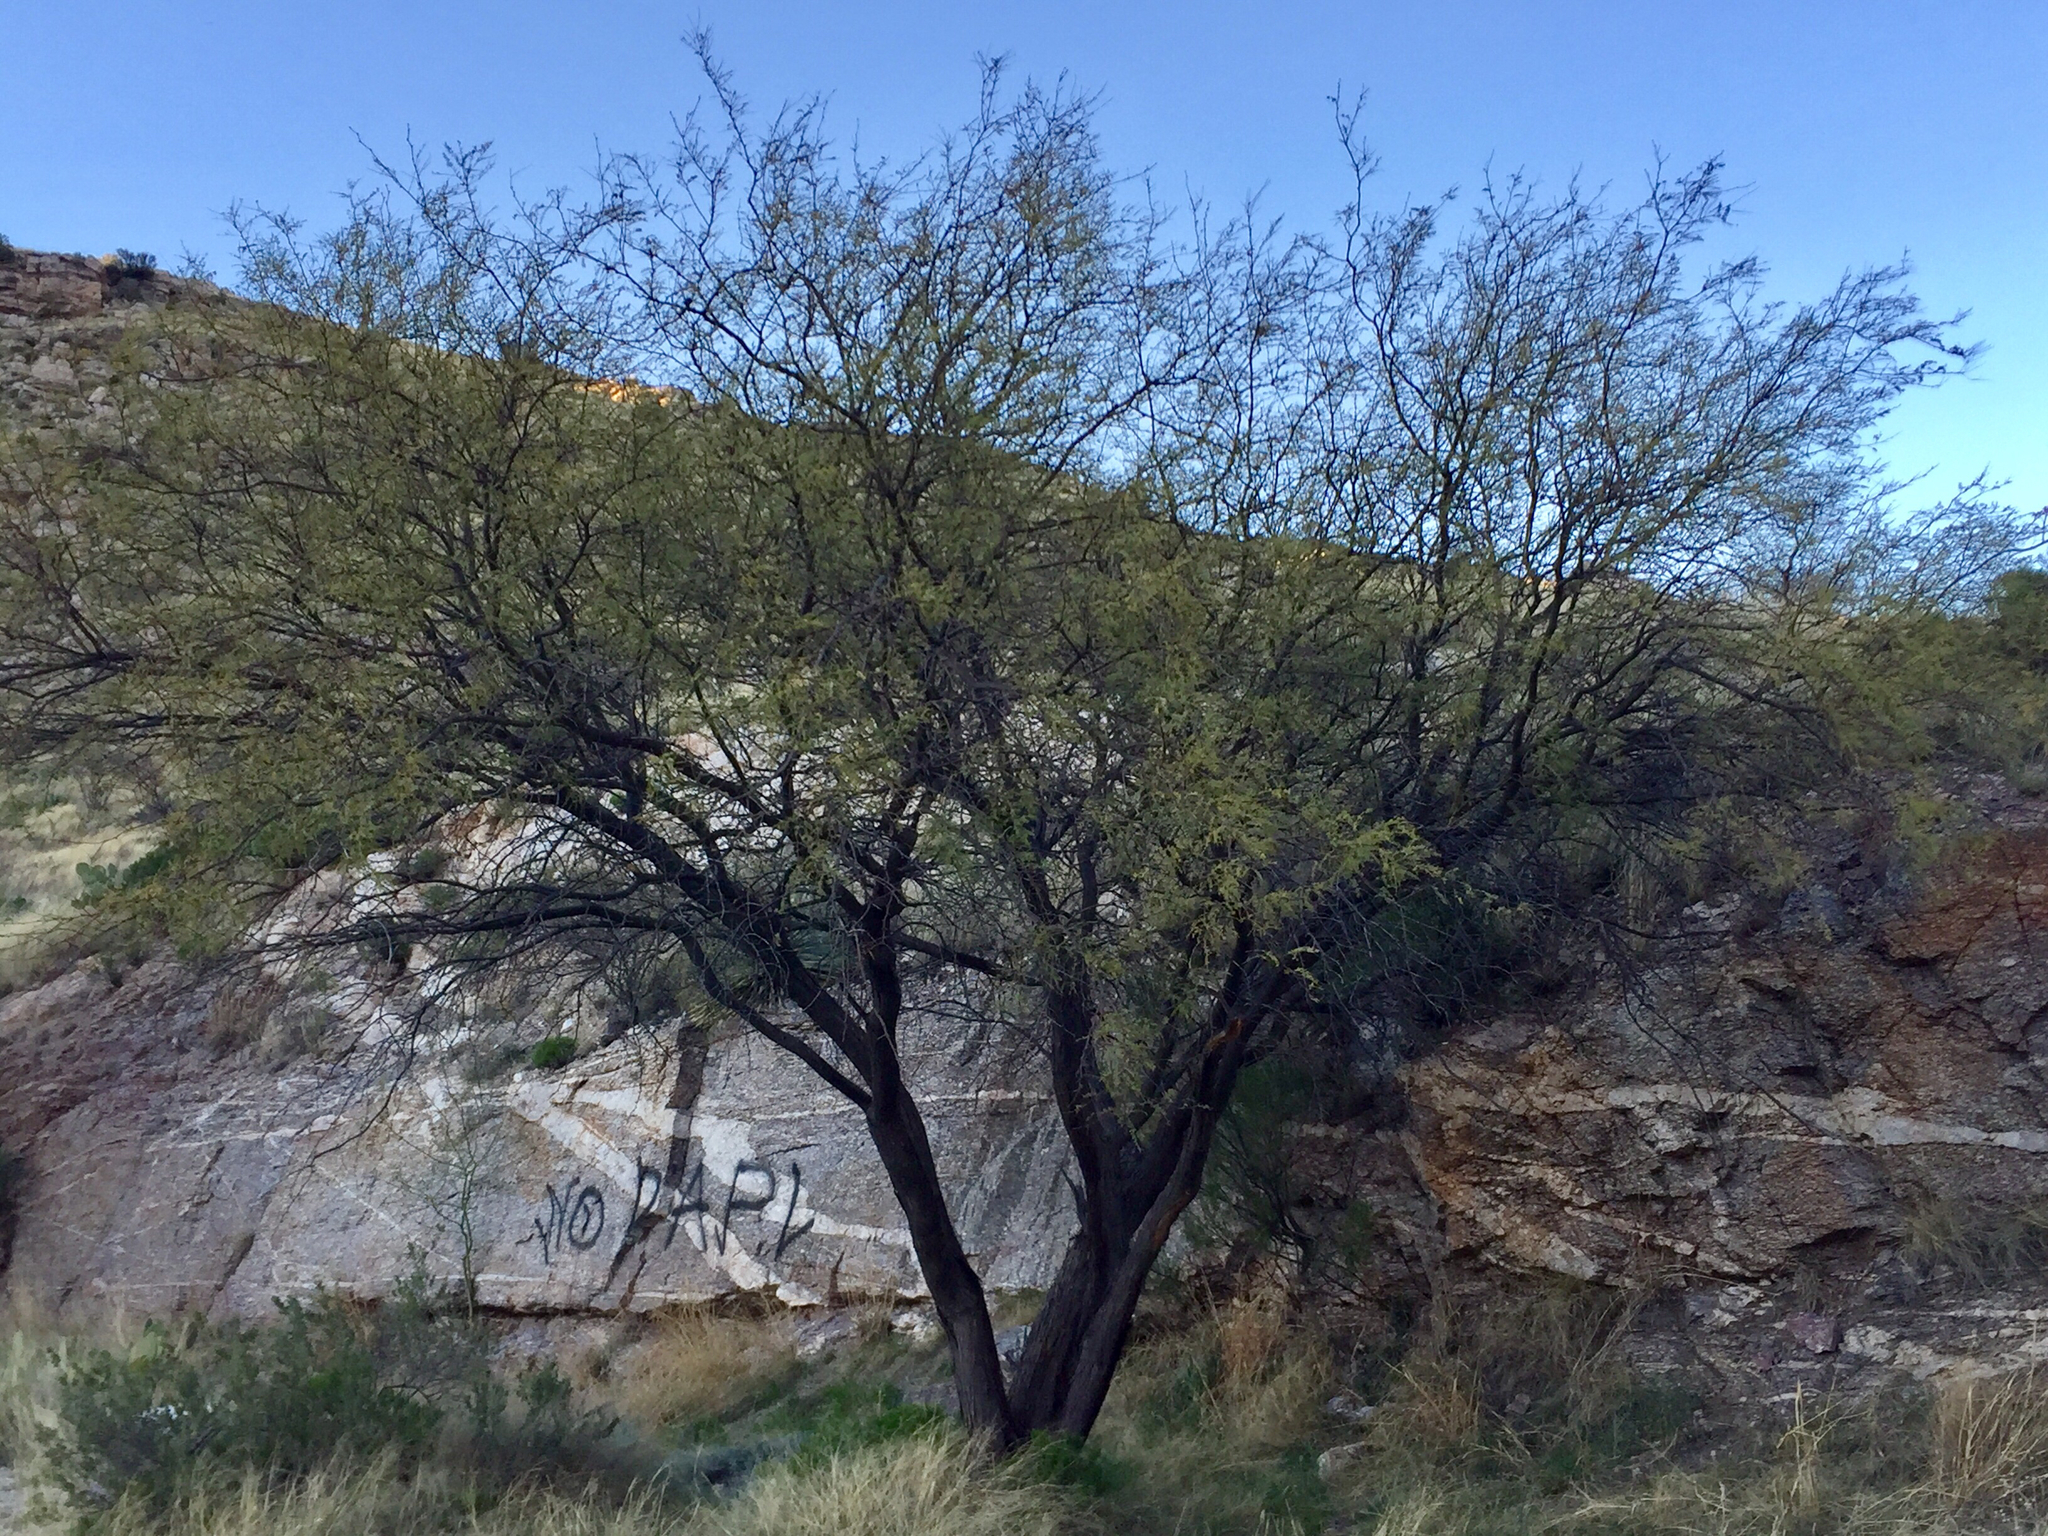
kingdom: Plantae
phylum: Tracheophyta
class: Magnoliopsida
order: Fabales
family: Fabaceae
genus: Prosopis
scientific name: Prosopis velutina
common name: Velvet mesquite
